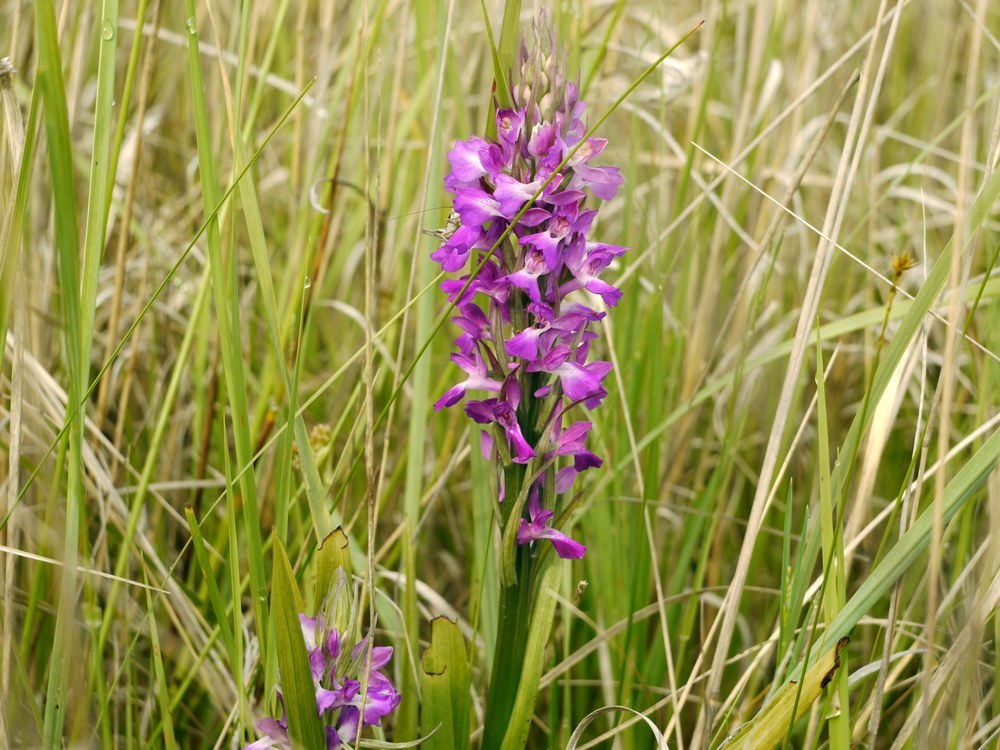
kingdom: Plantae
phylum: Tracheophyta
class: Liliopsida
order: Asparagales
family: Orchidaceae
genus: Dactylorhiza
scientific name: Dactylorhiza incarnata
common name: Early marsh-orchid
